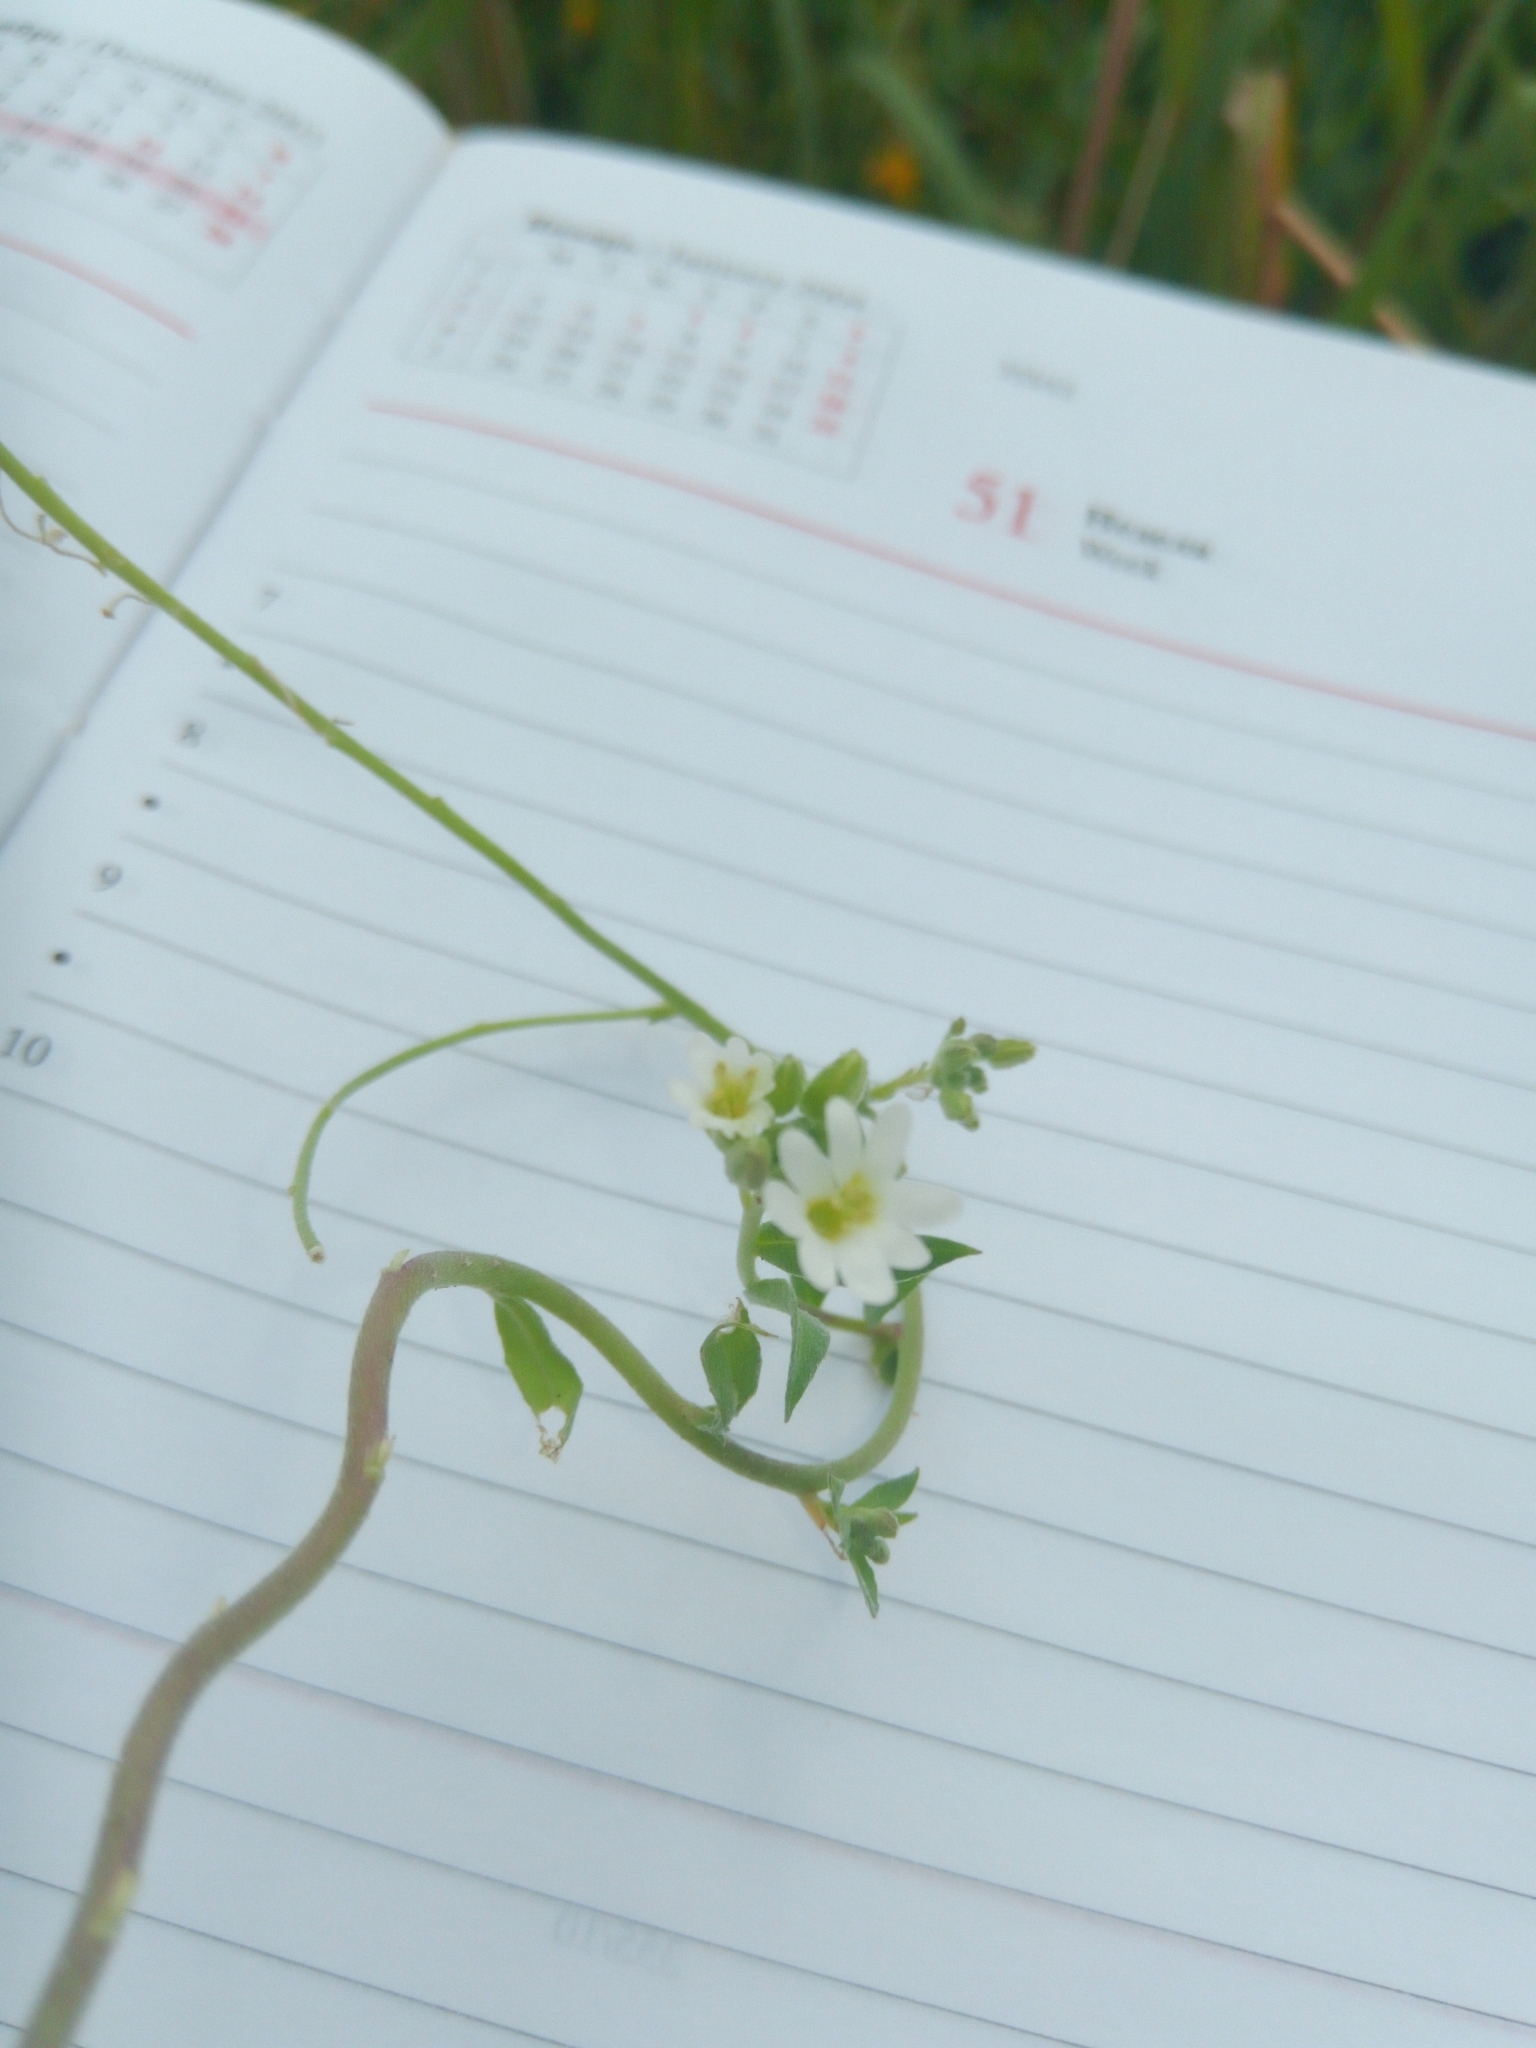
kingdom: Plantae
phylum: Tracheophyta
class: Magnoliopsida
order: Brassicales
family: Brassicaceae
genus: Berteroa
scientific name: Berteroa incana
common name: Hoary alison
